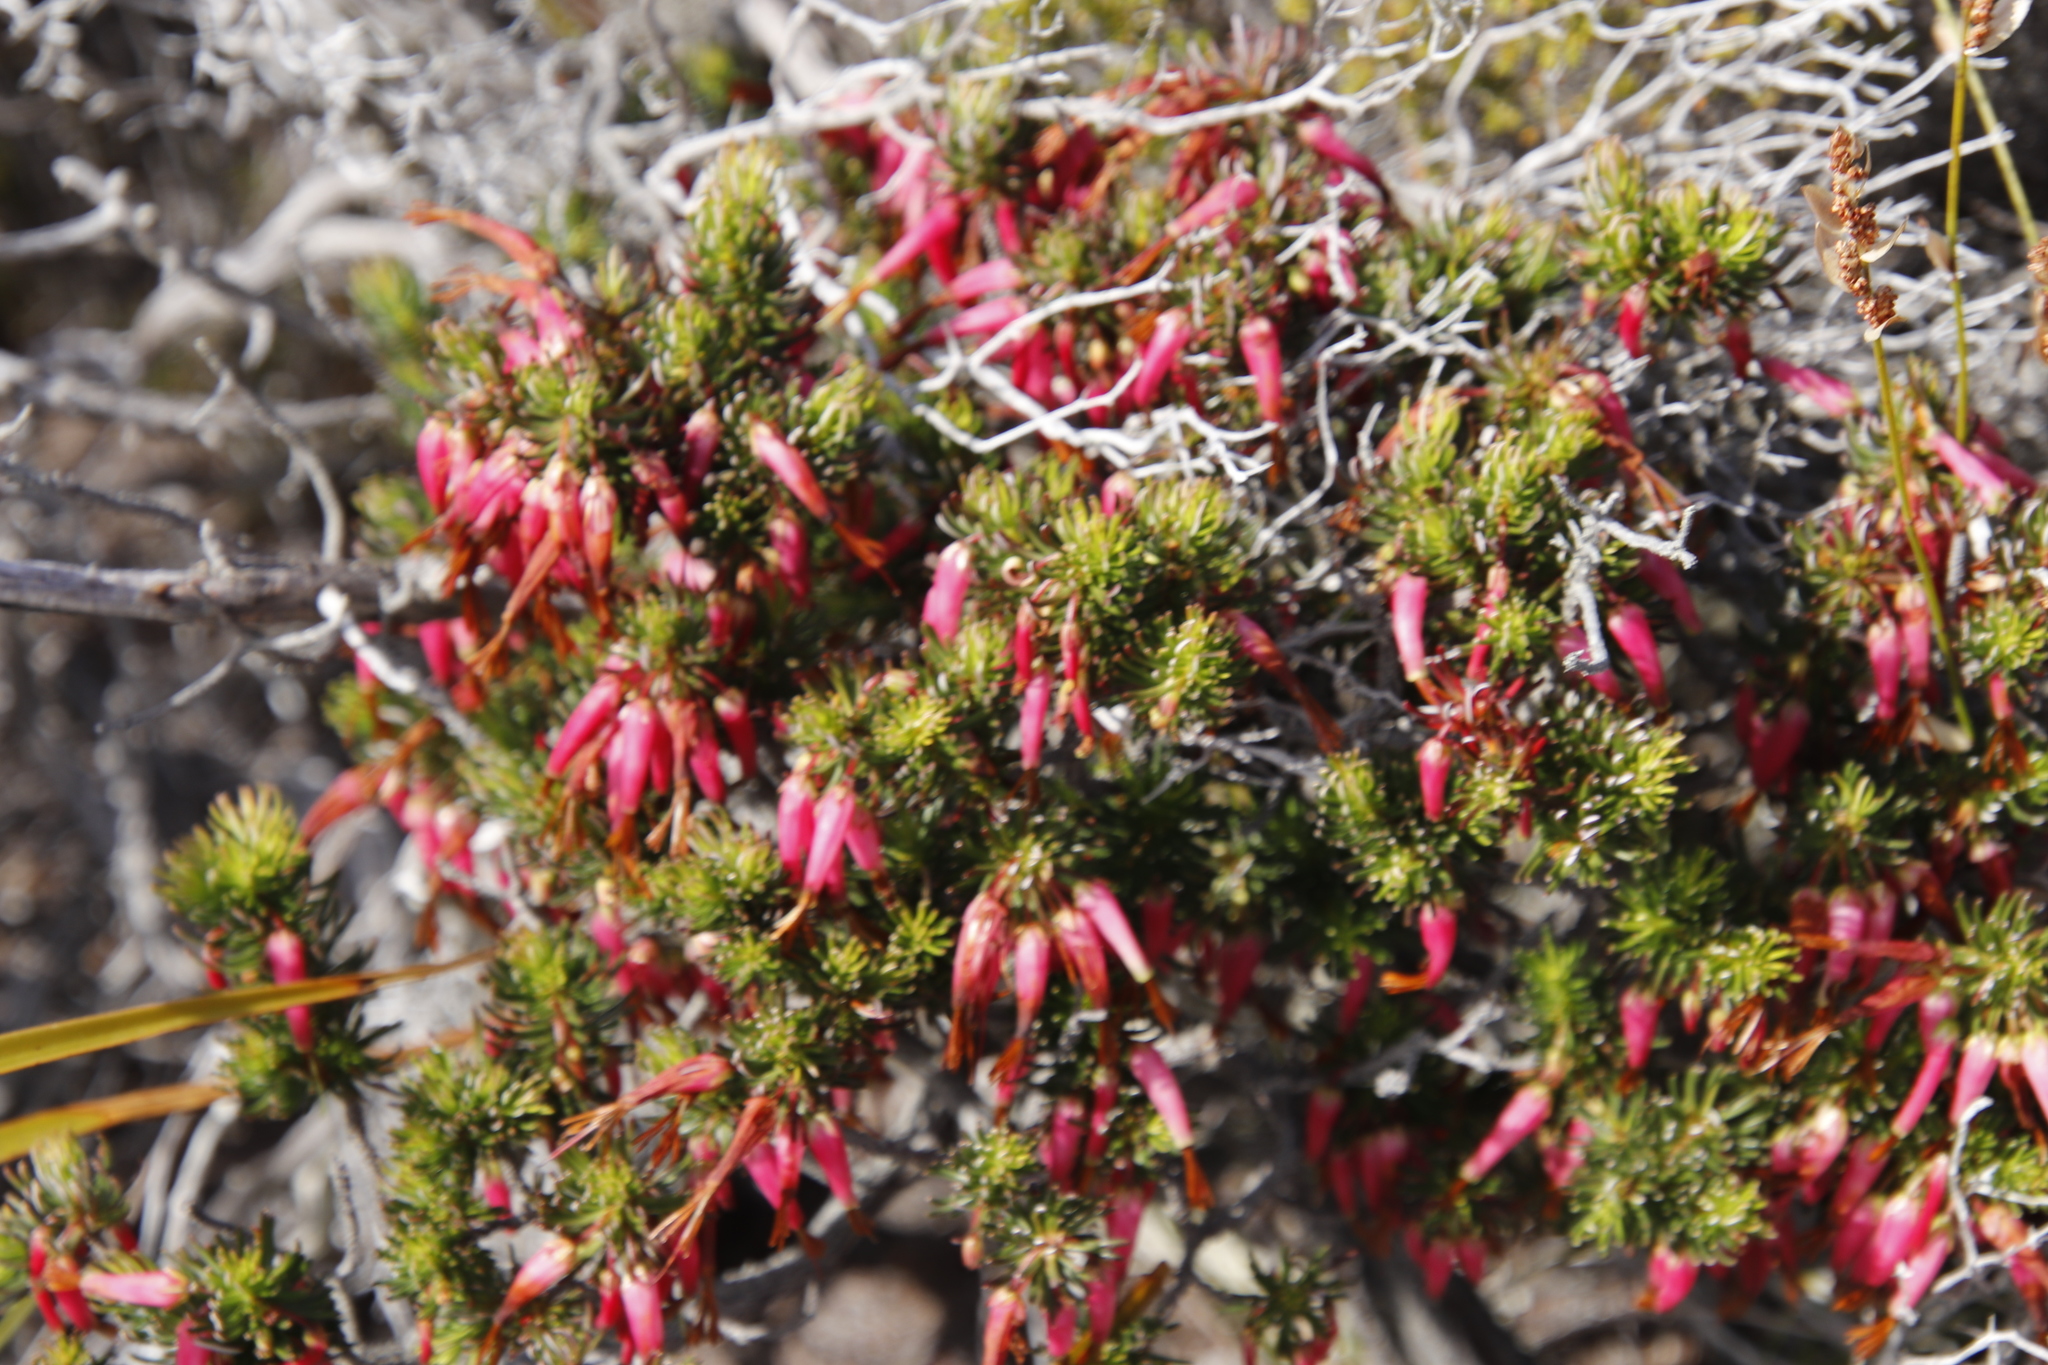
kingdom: Plantae
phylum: Tracheophyta
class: Magnoliopsida
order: Ericales
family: Ericaceae
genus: Erica
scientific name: Erica plukenetii
